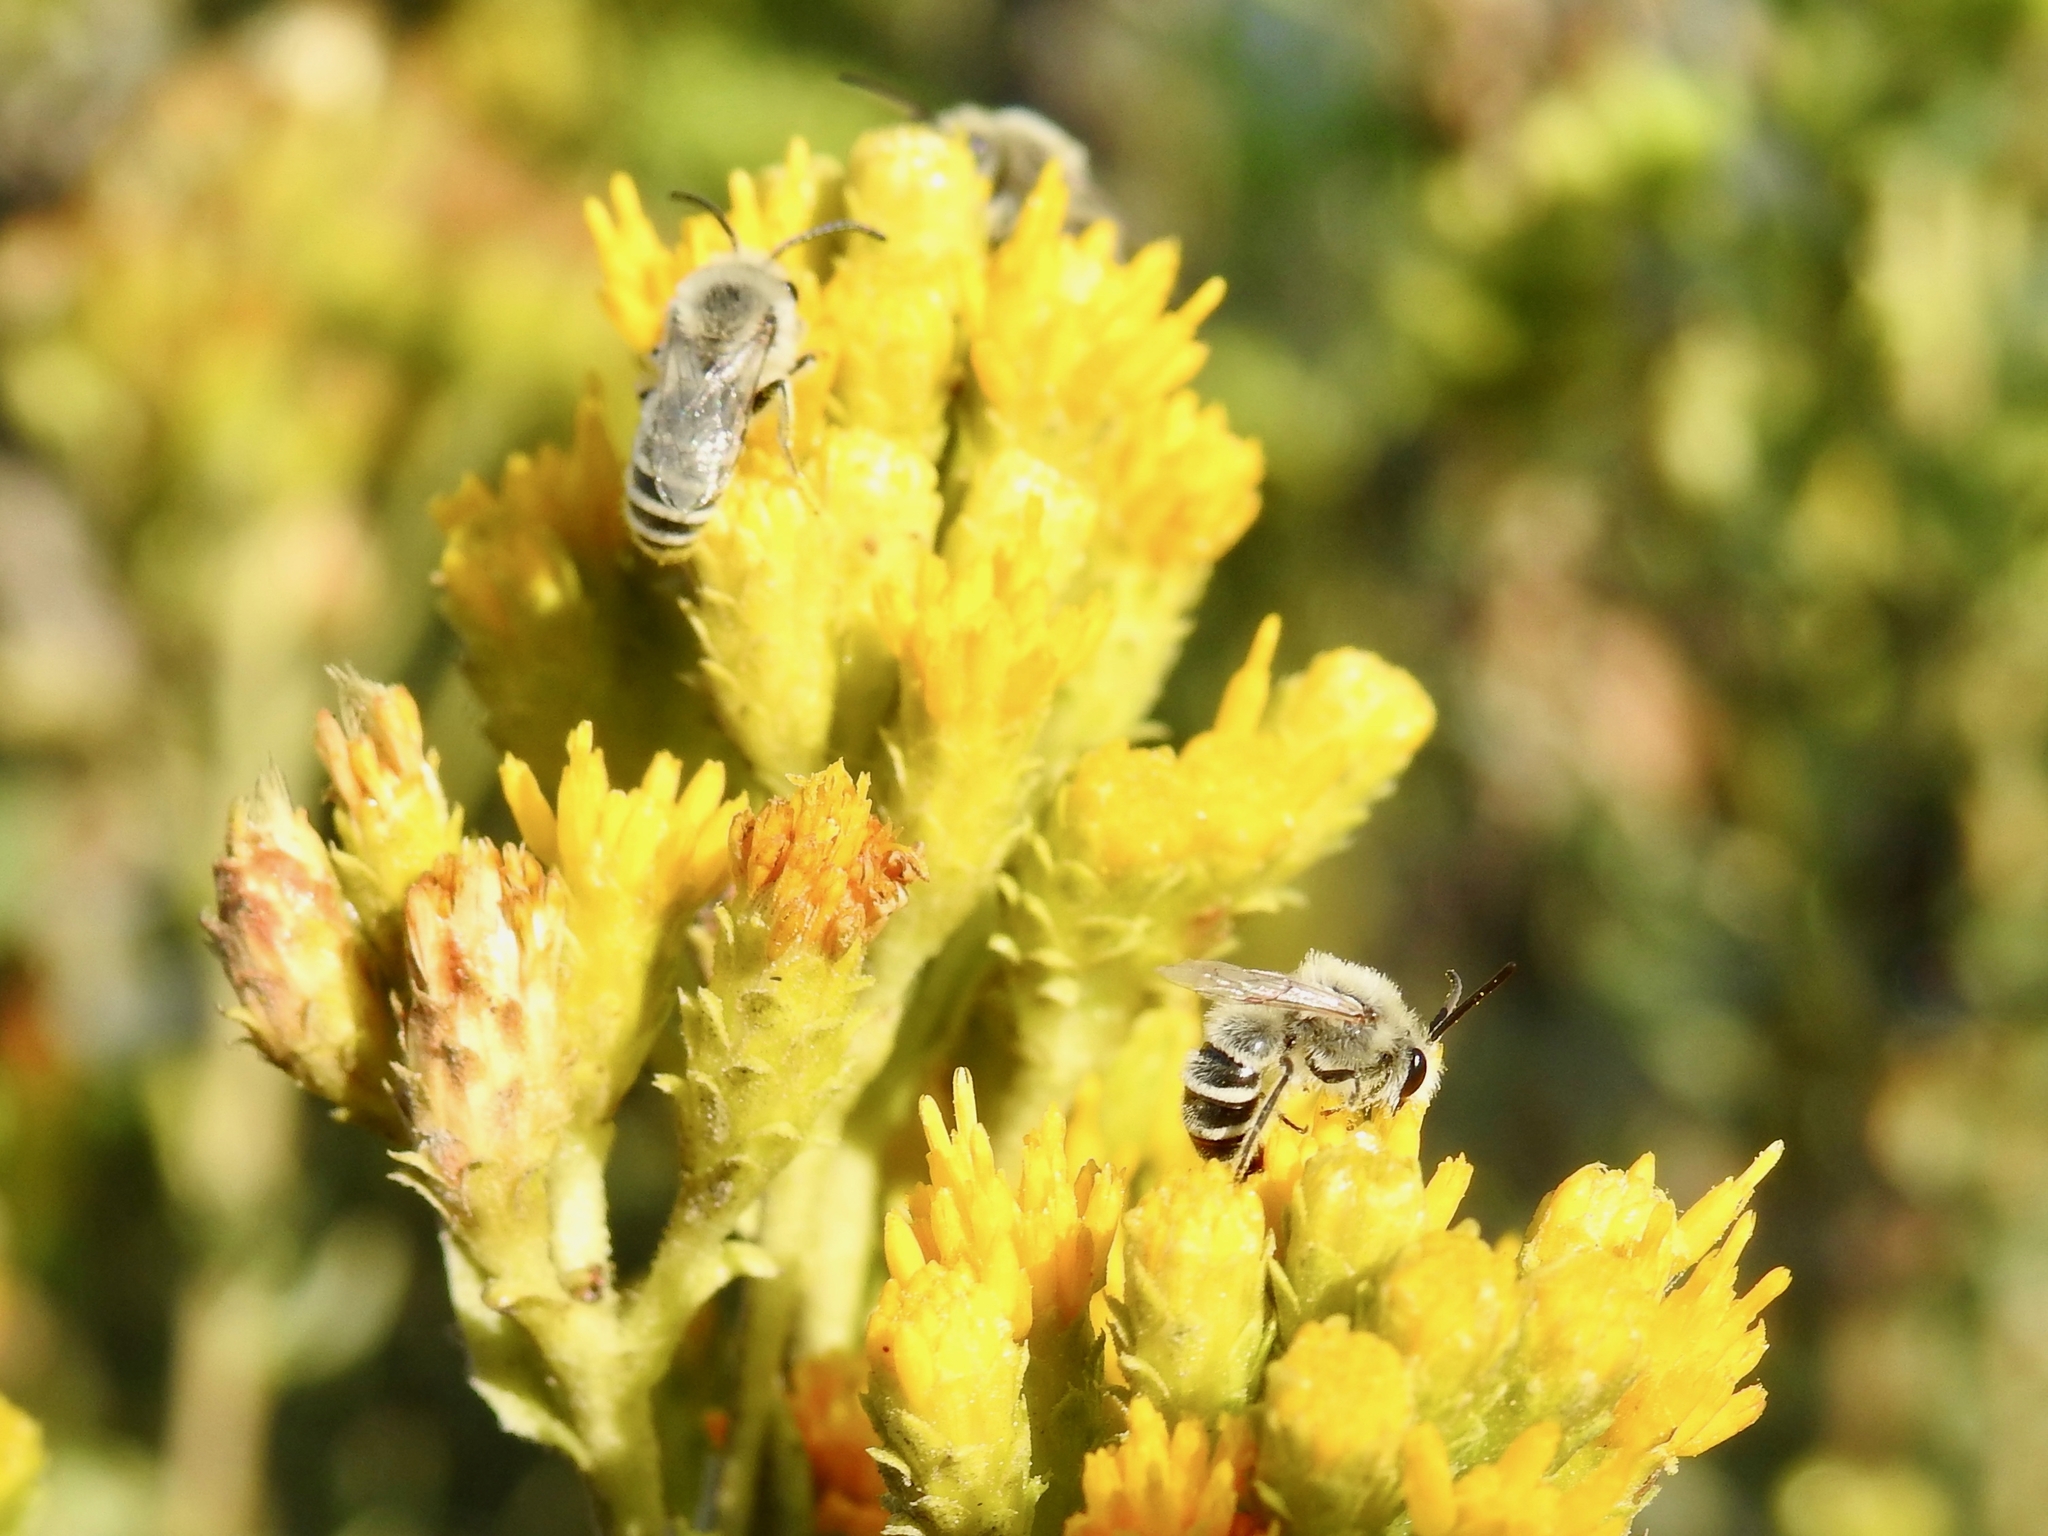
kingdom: Animalia
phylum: Arthropoda
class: Insecta
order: Hymenoptera
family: Colletidae
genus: Colletes
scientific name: Colletes
